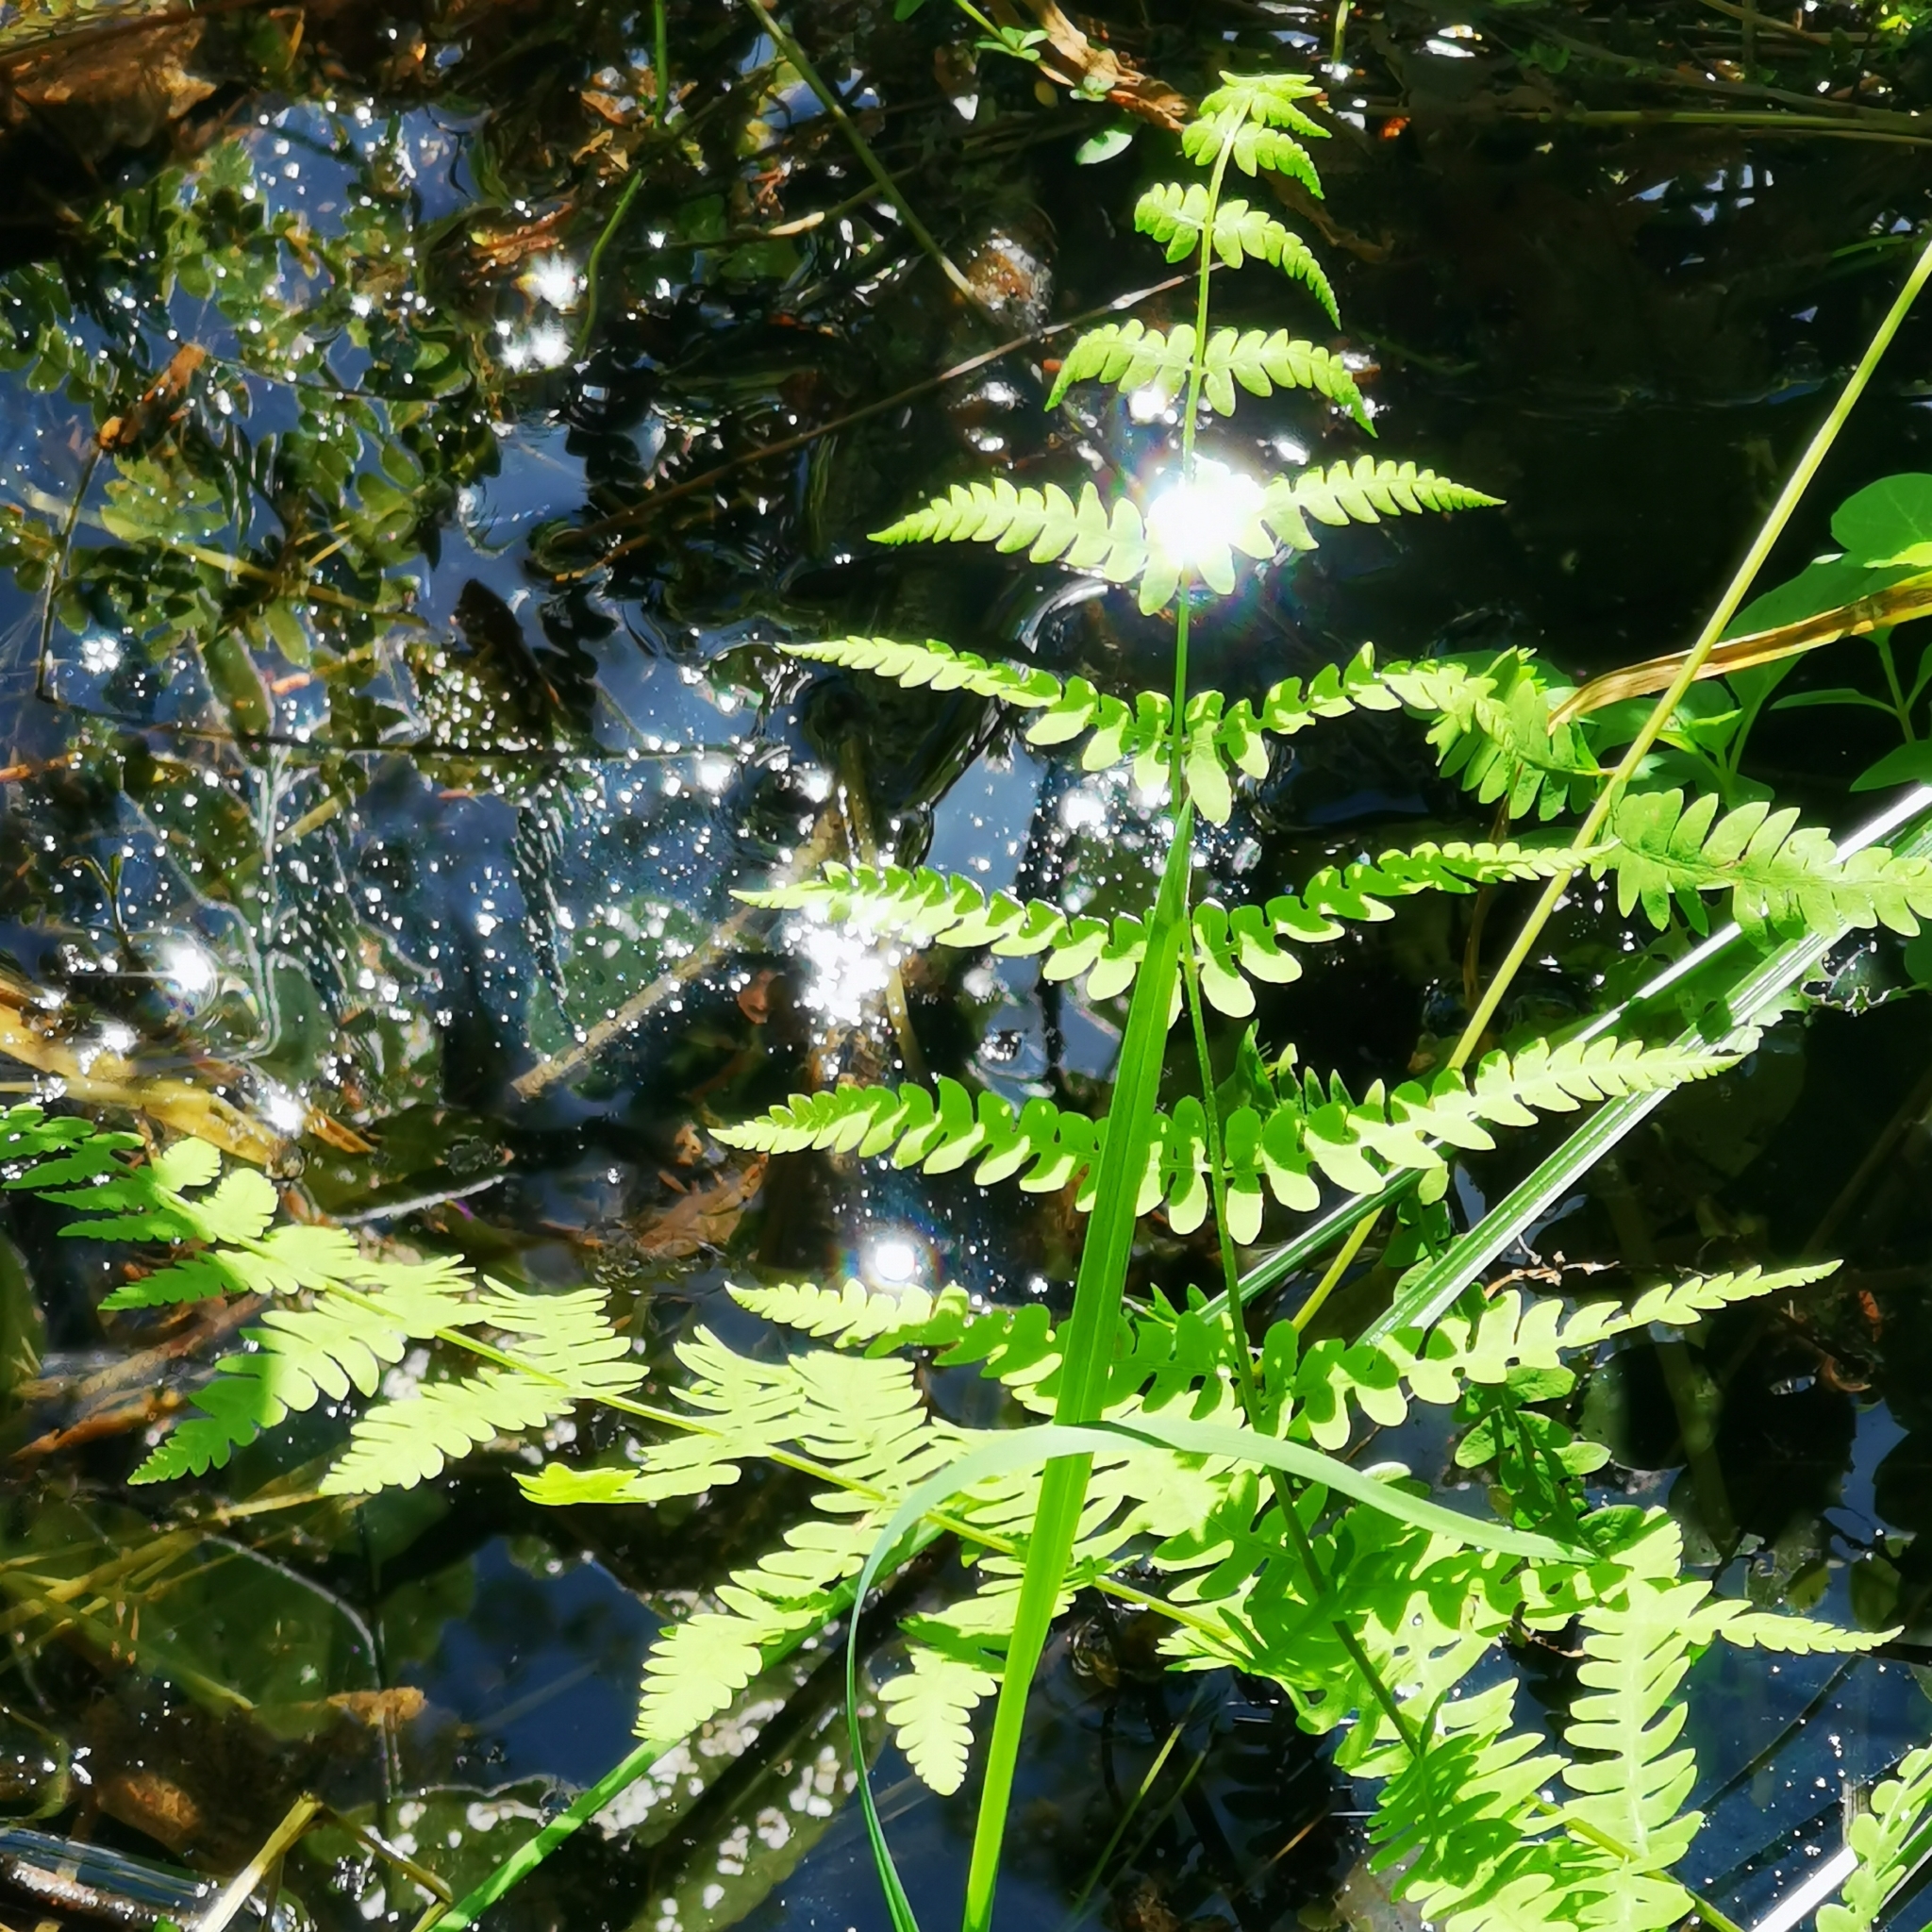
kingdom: Plantae
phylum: Tracheophyta
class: Polypodiopsida
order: Polypodiales
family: Thelypteridaceae
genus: Thelypteris
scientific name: Thelypteris palustris
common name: Marsh fern
